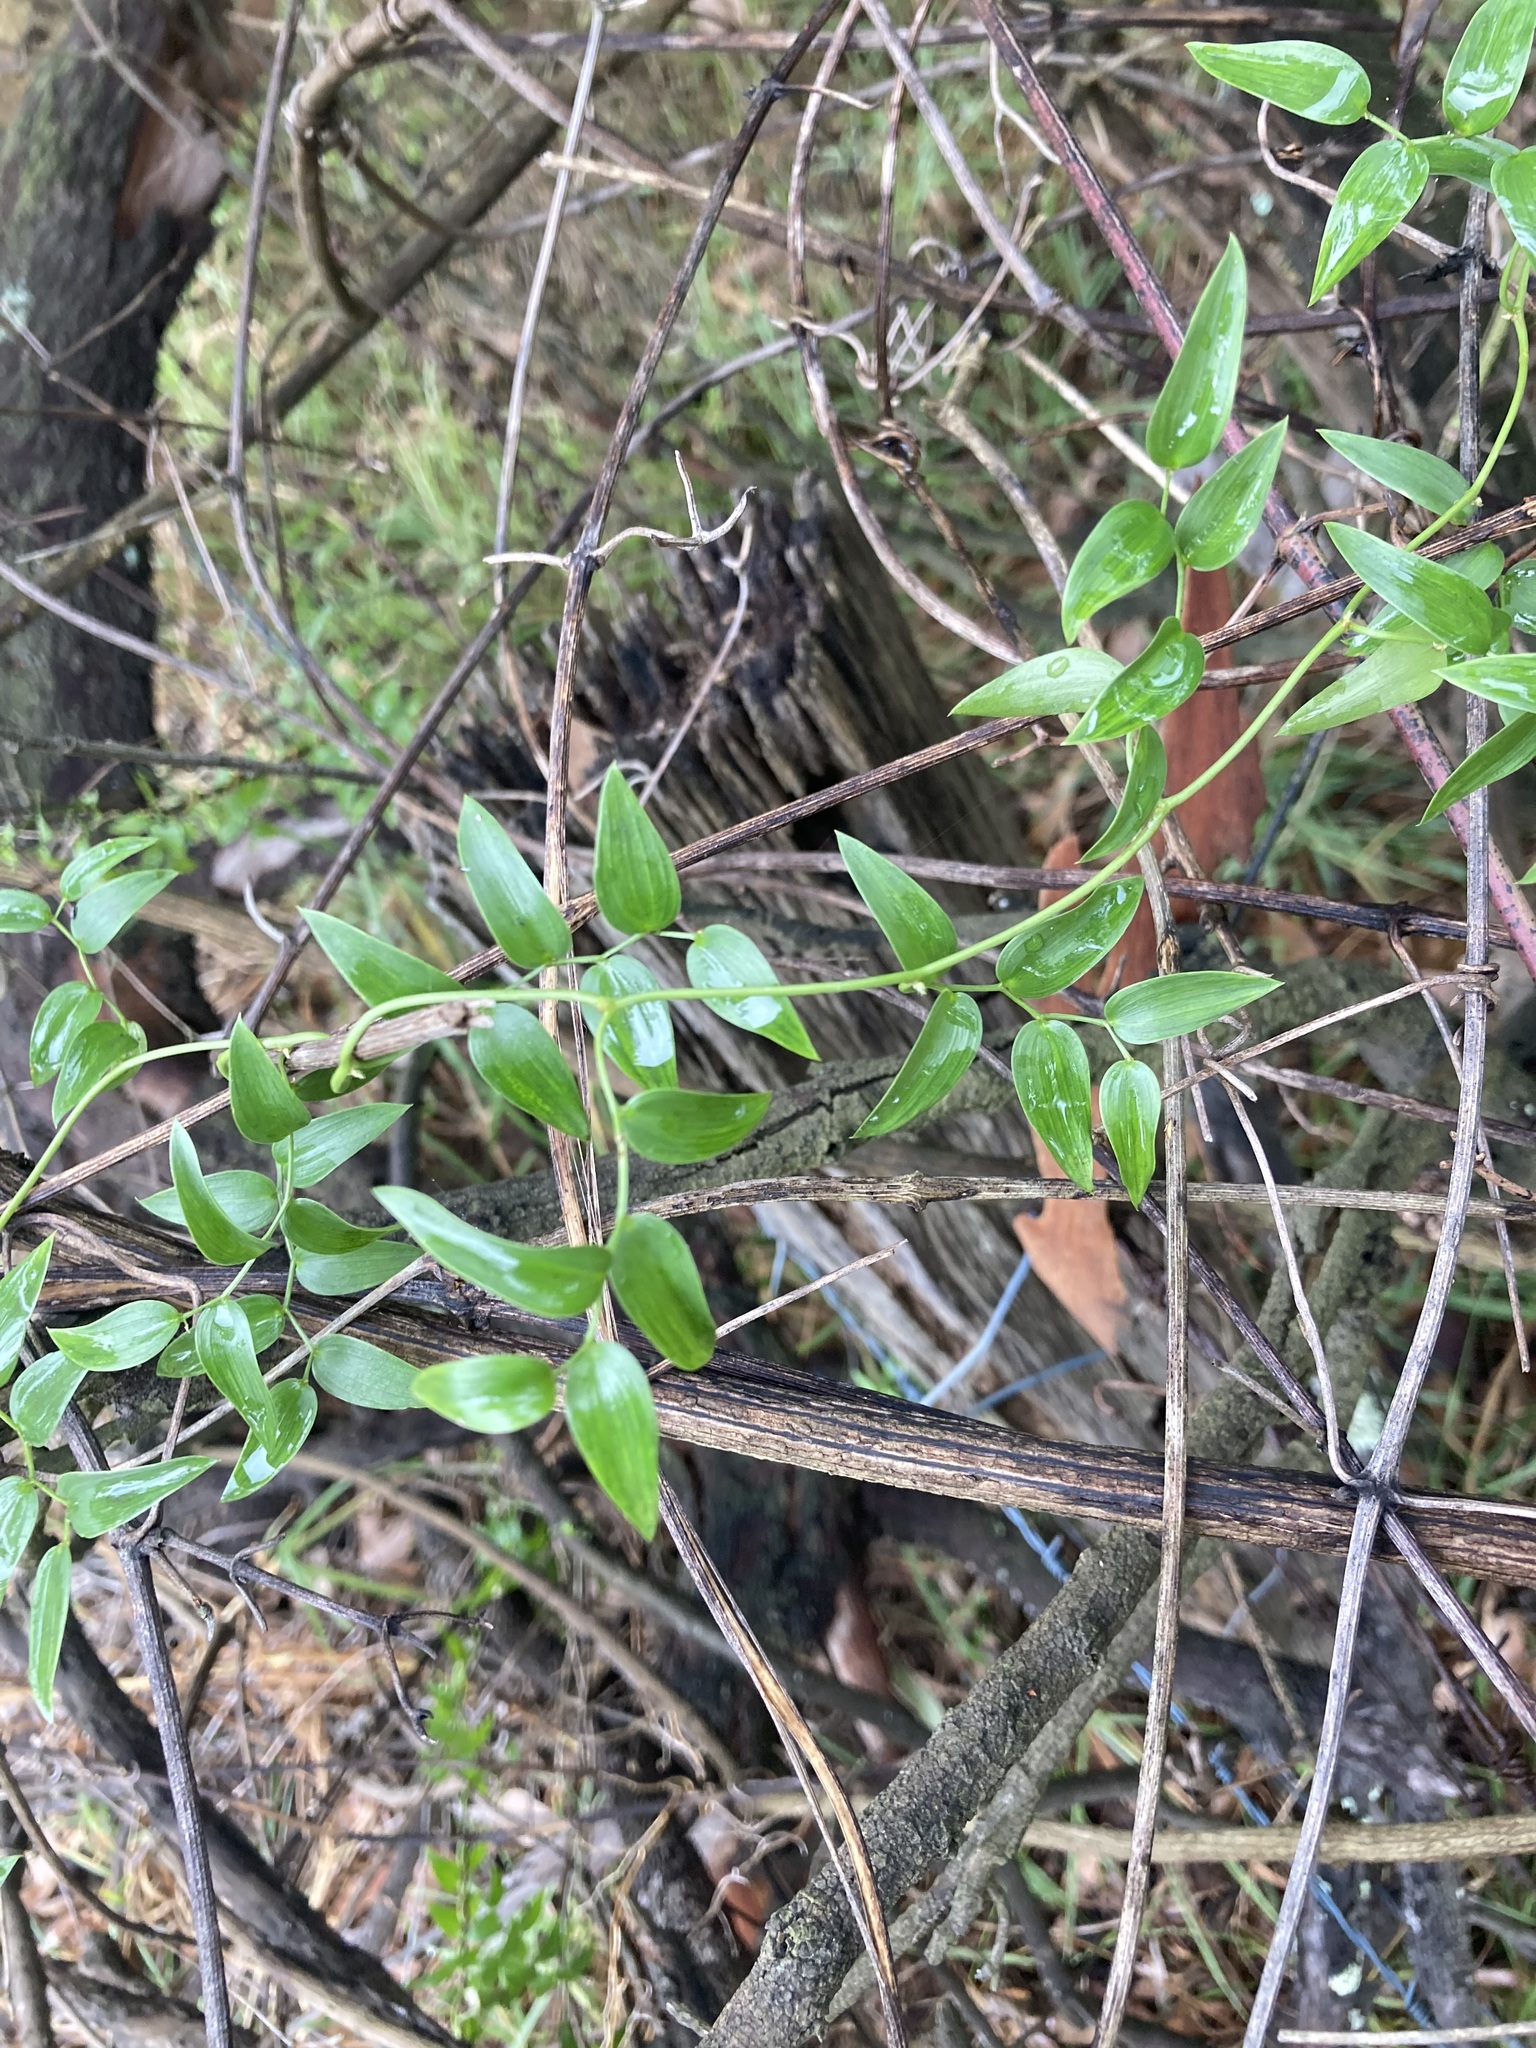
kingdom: Plantae
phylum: Tracheophyta
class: Liliopsida
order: Asparagales
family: Asparagaceae
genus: Asparagus
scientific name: Asparagus asparagoides
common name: African asparagus fern
